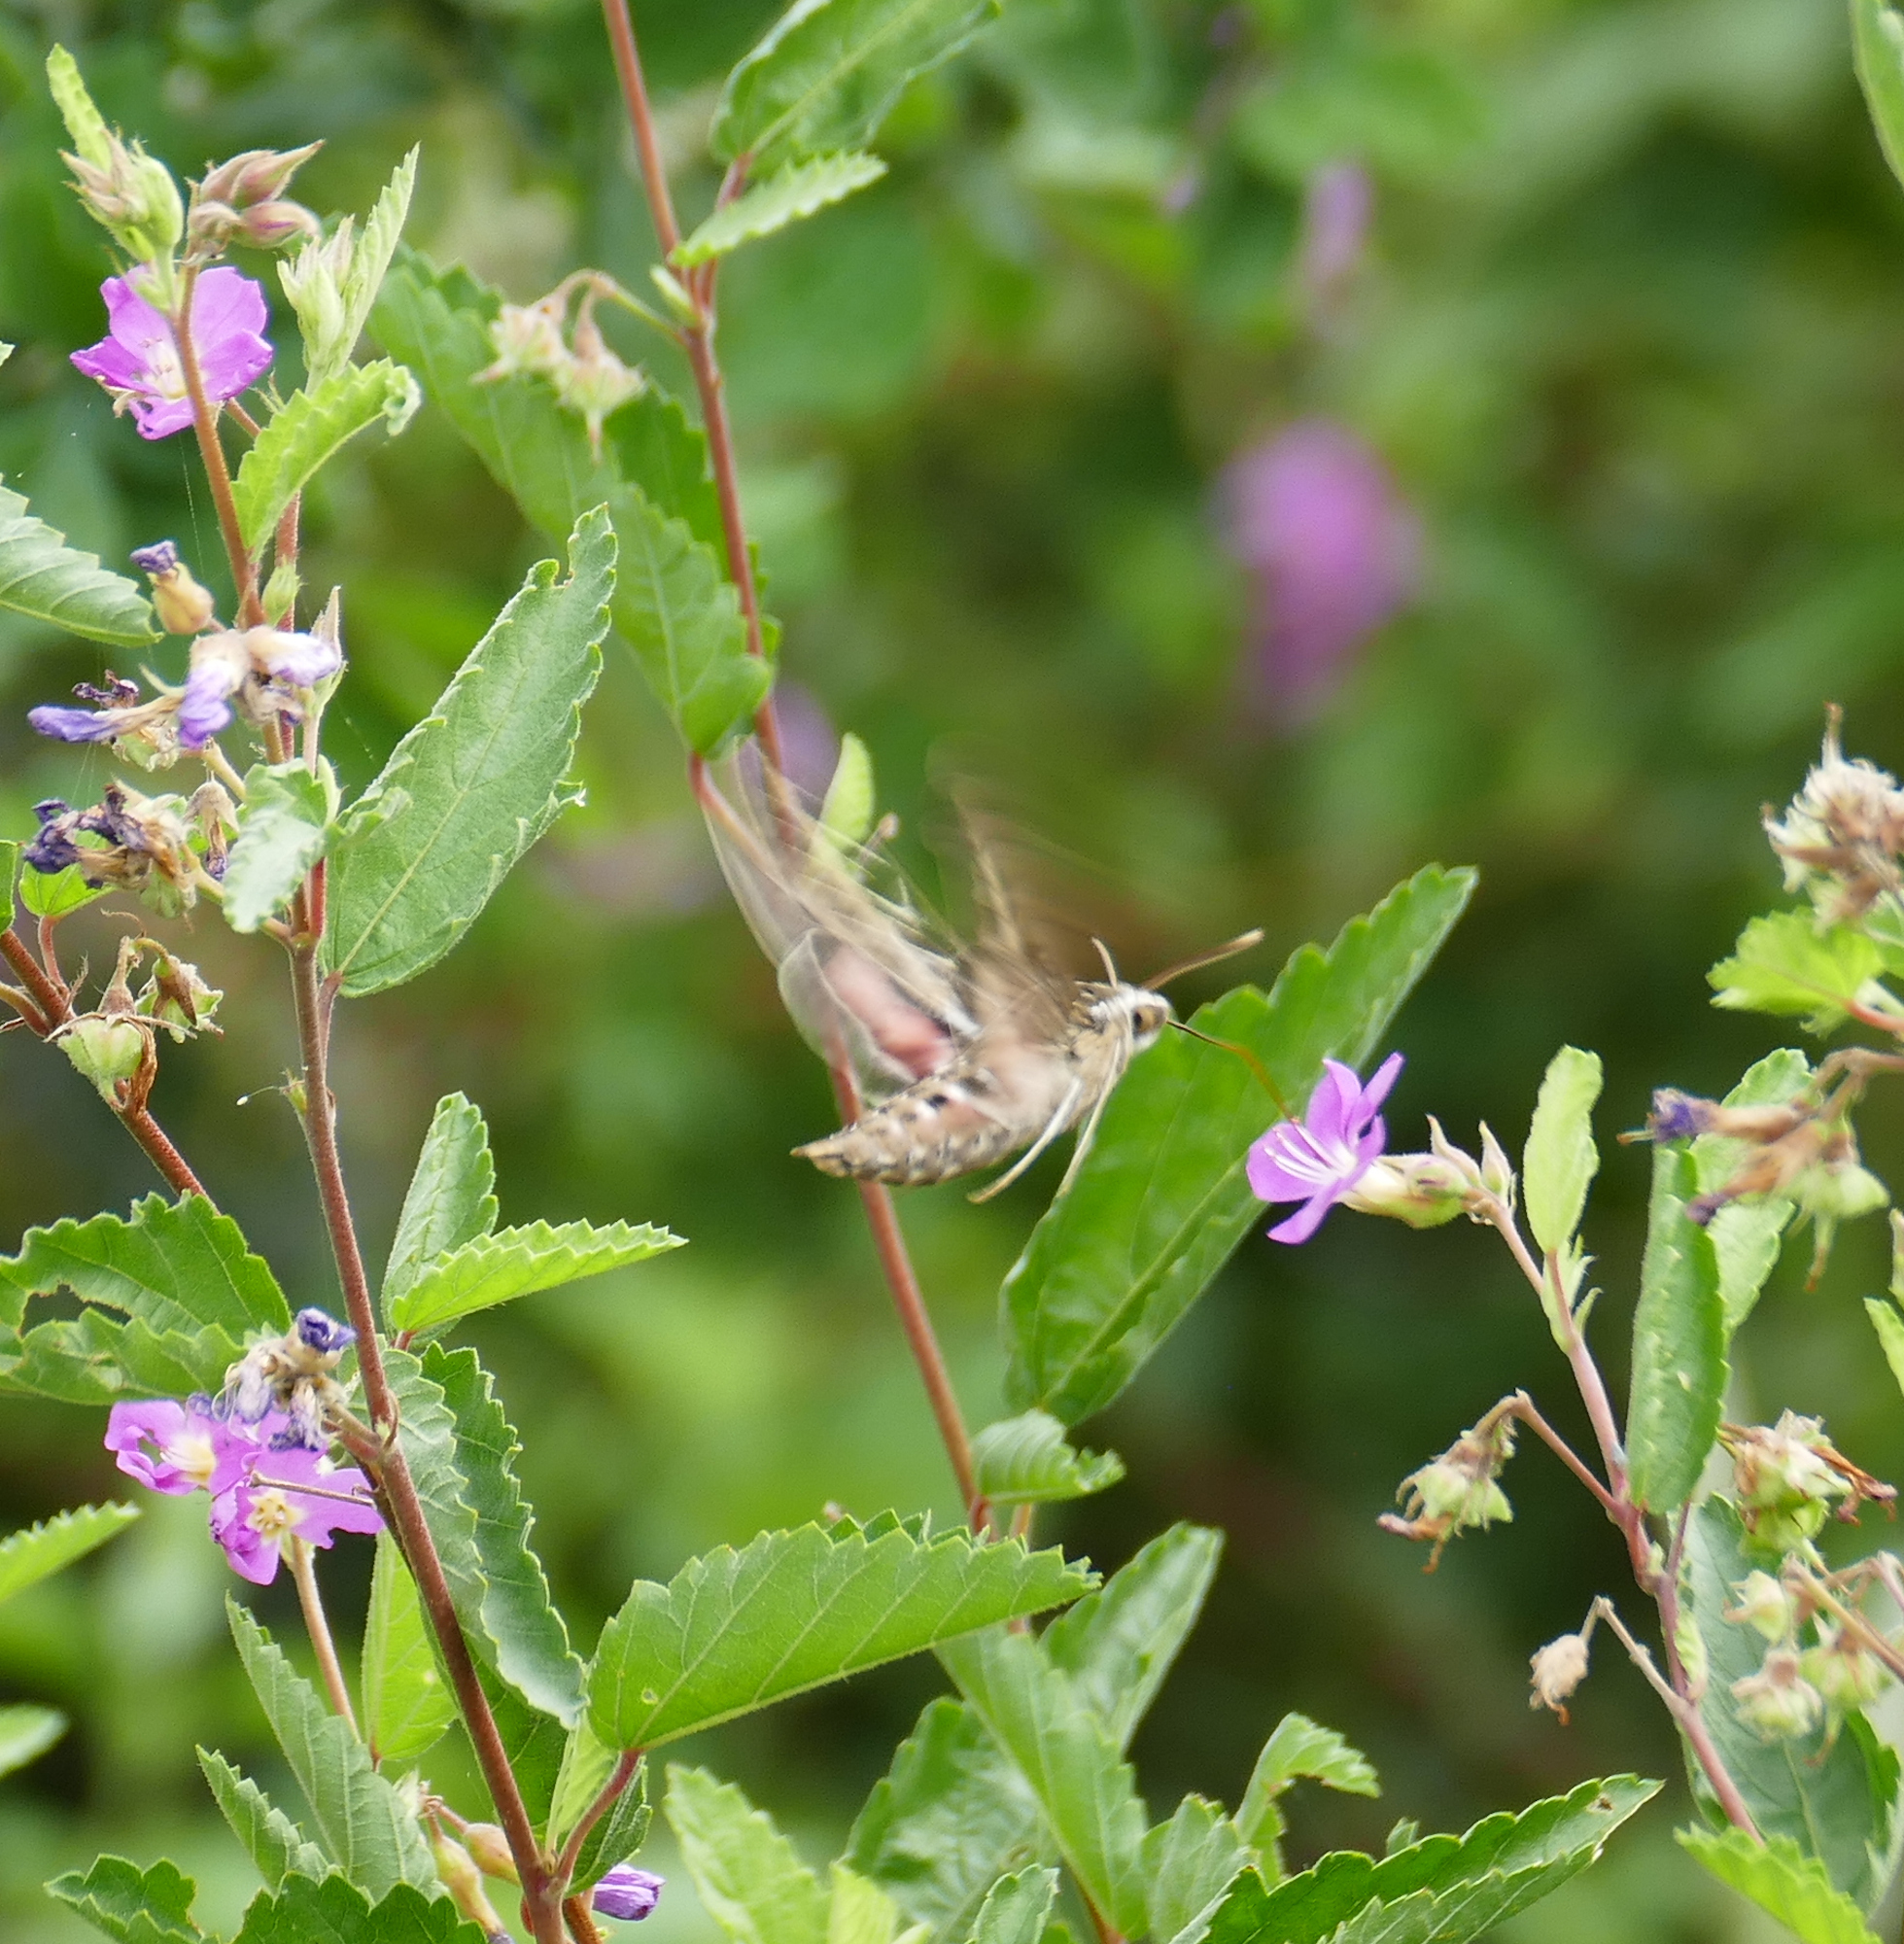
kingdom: Animalia
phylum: Arthropoda
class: Insecta
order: Lepidoptera
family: Sphingidae
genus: Hyles
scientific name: Hyles lineata
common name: White-lined sphinx
